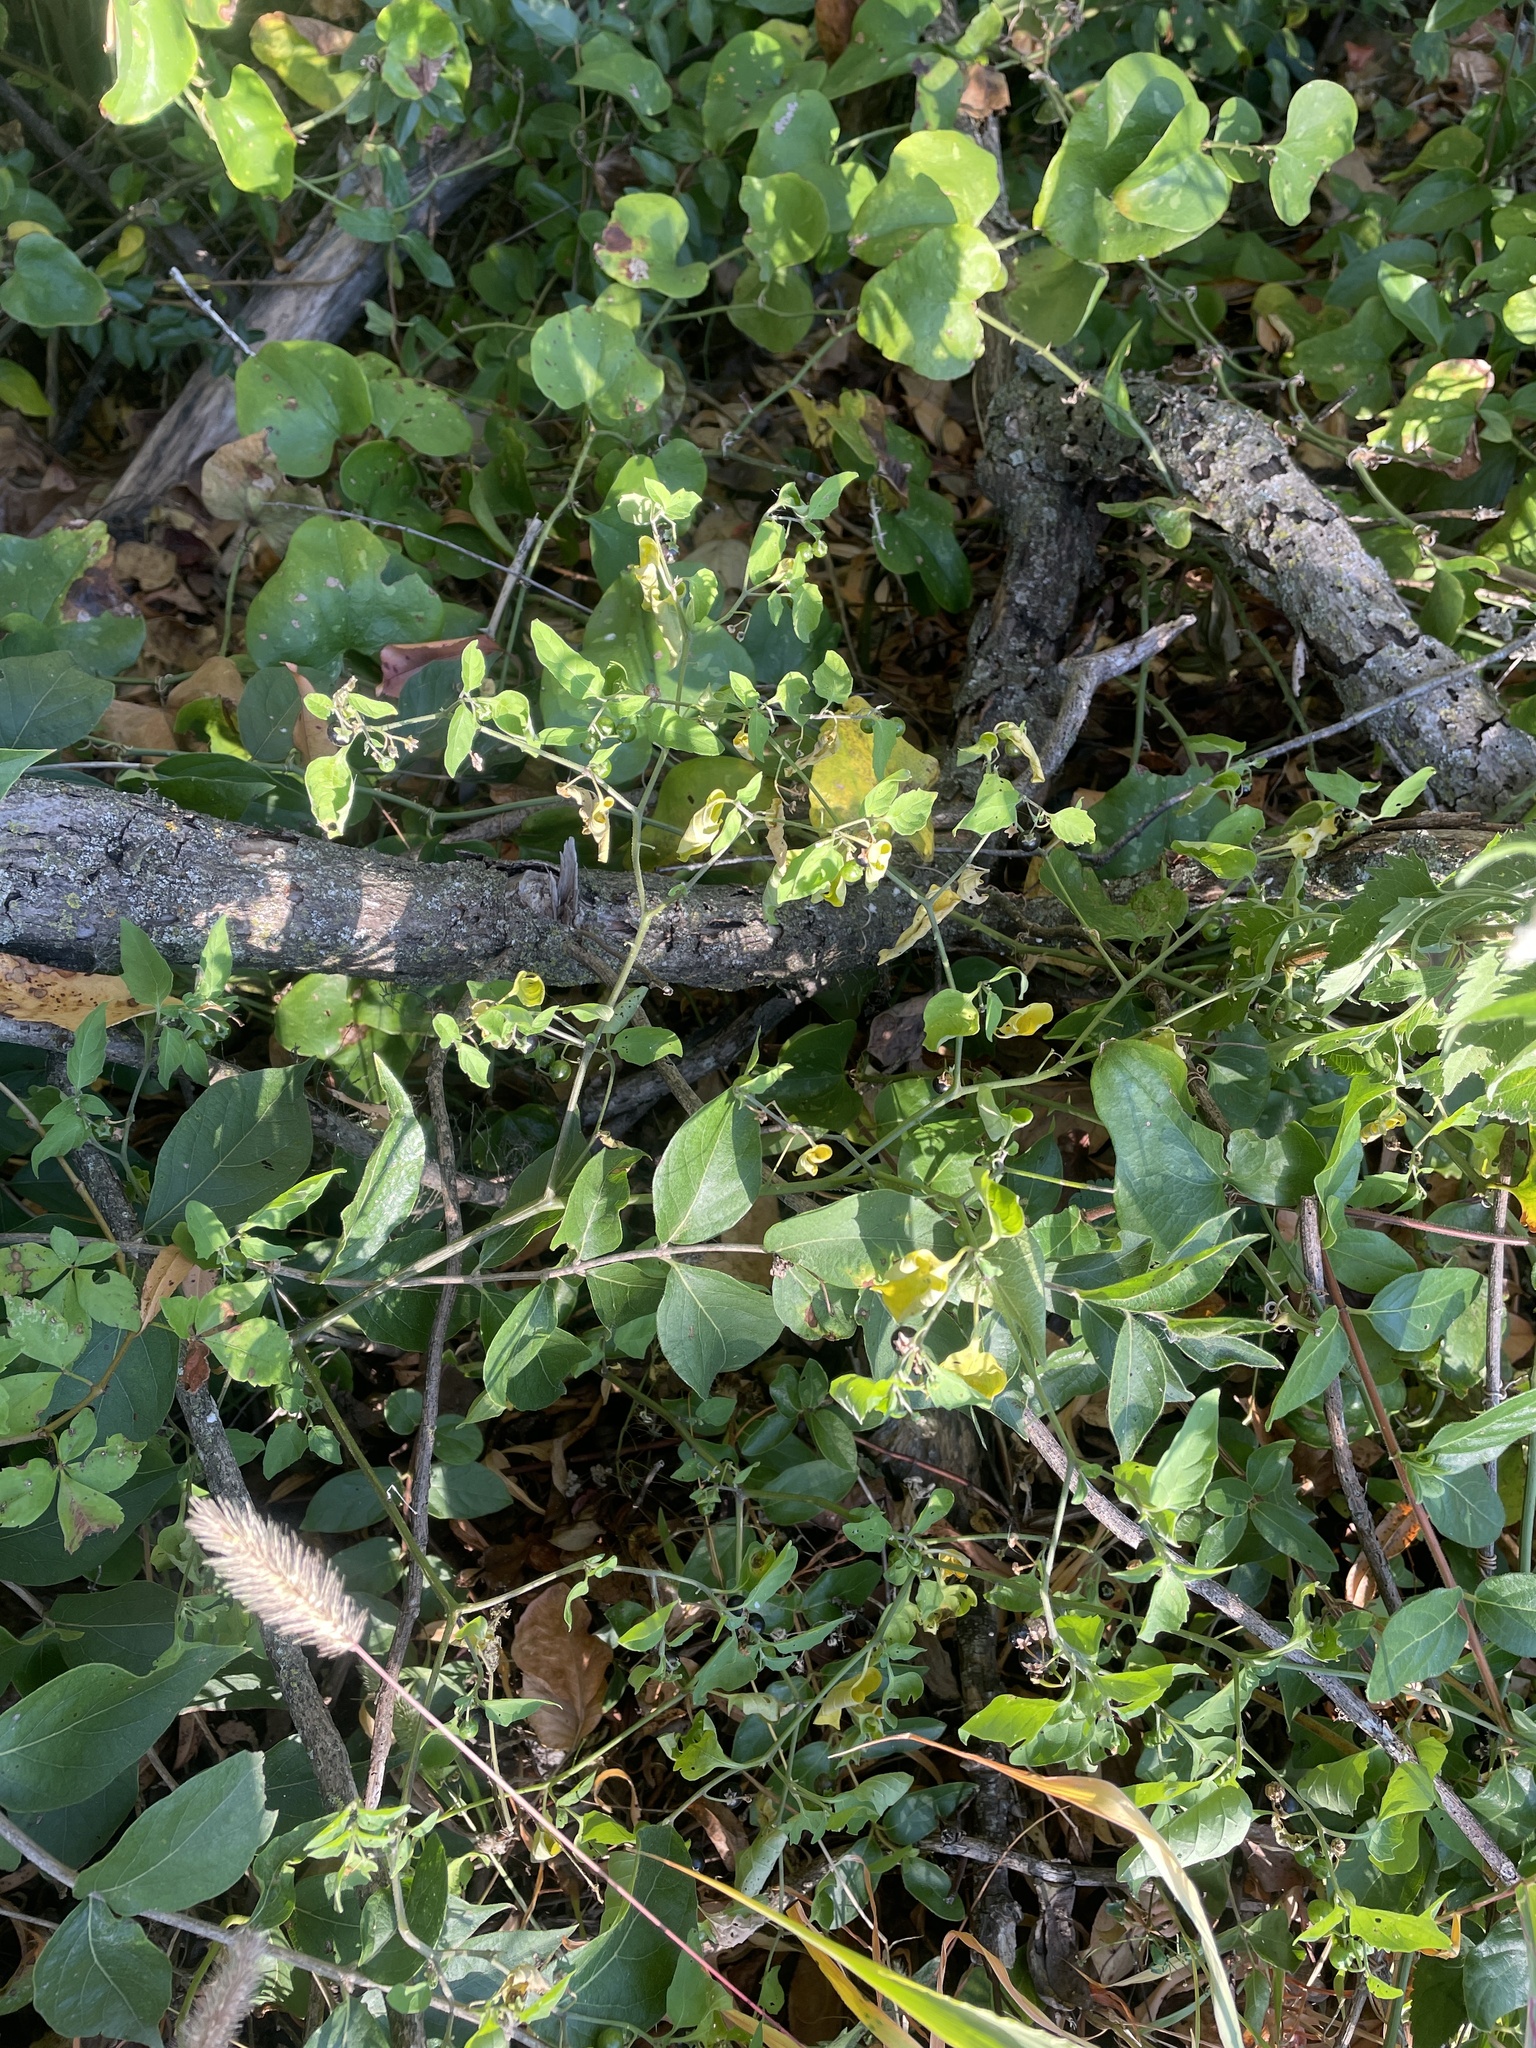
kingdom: Plantae
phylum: Tracheophyta
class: Magnoliopsida
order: Solanales
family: Solanaceae
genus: Solanum
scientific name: Solanum emulans
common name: Eastern black nightshade
